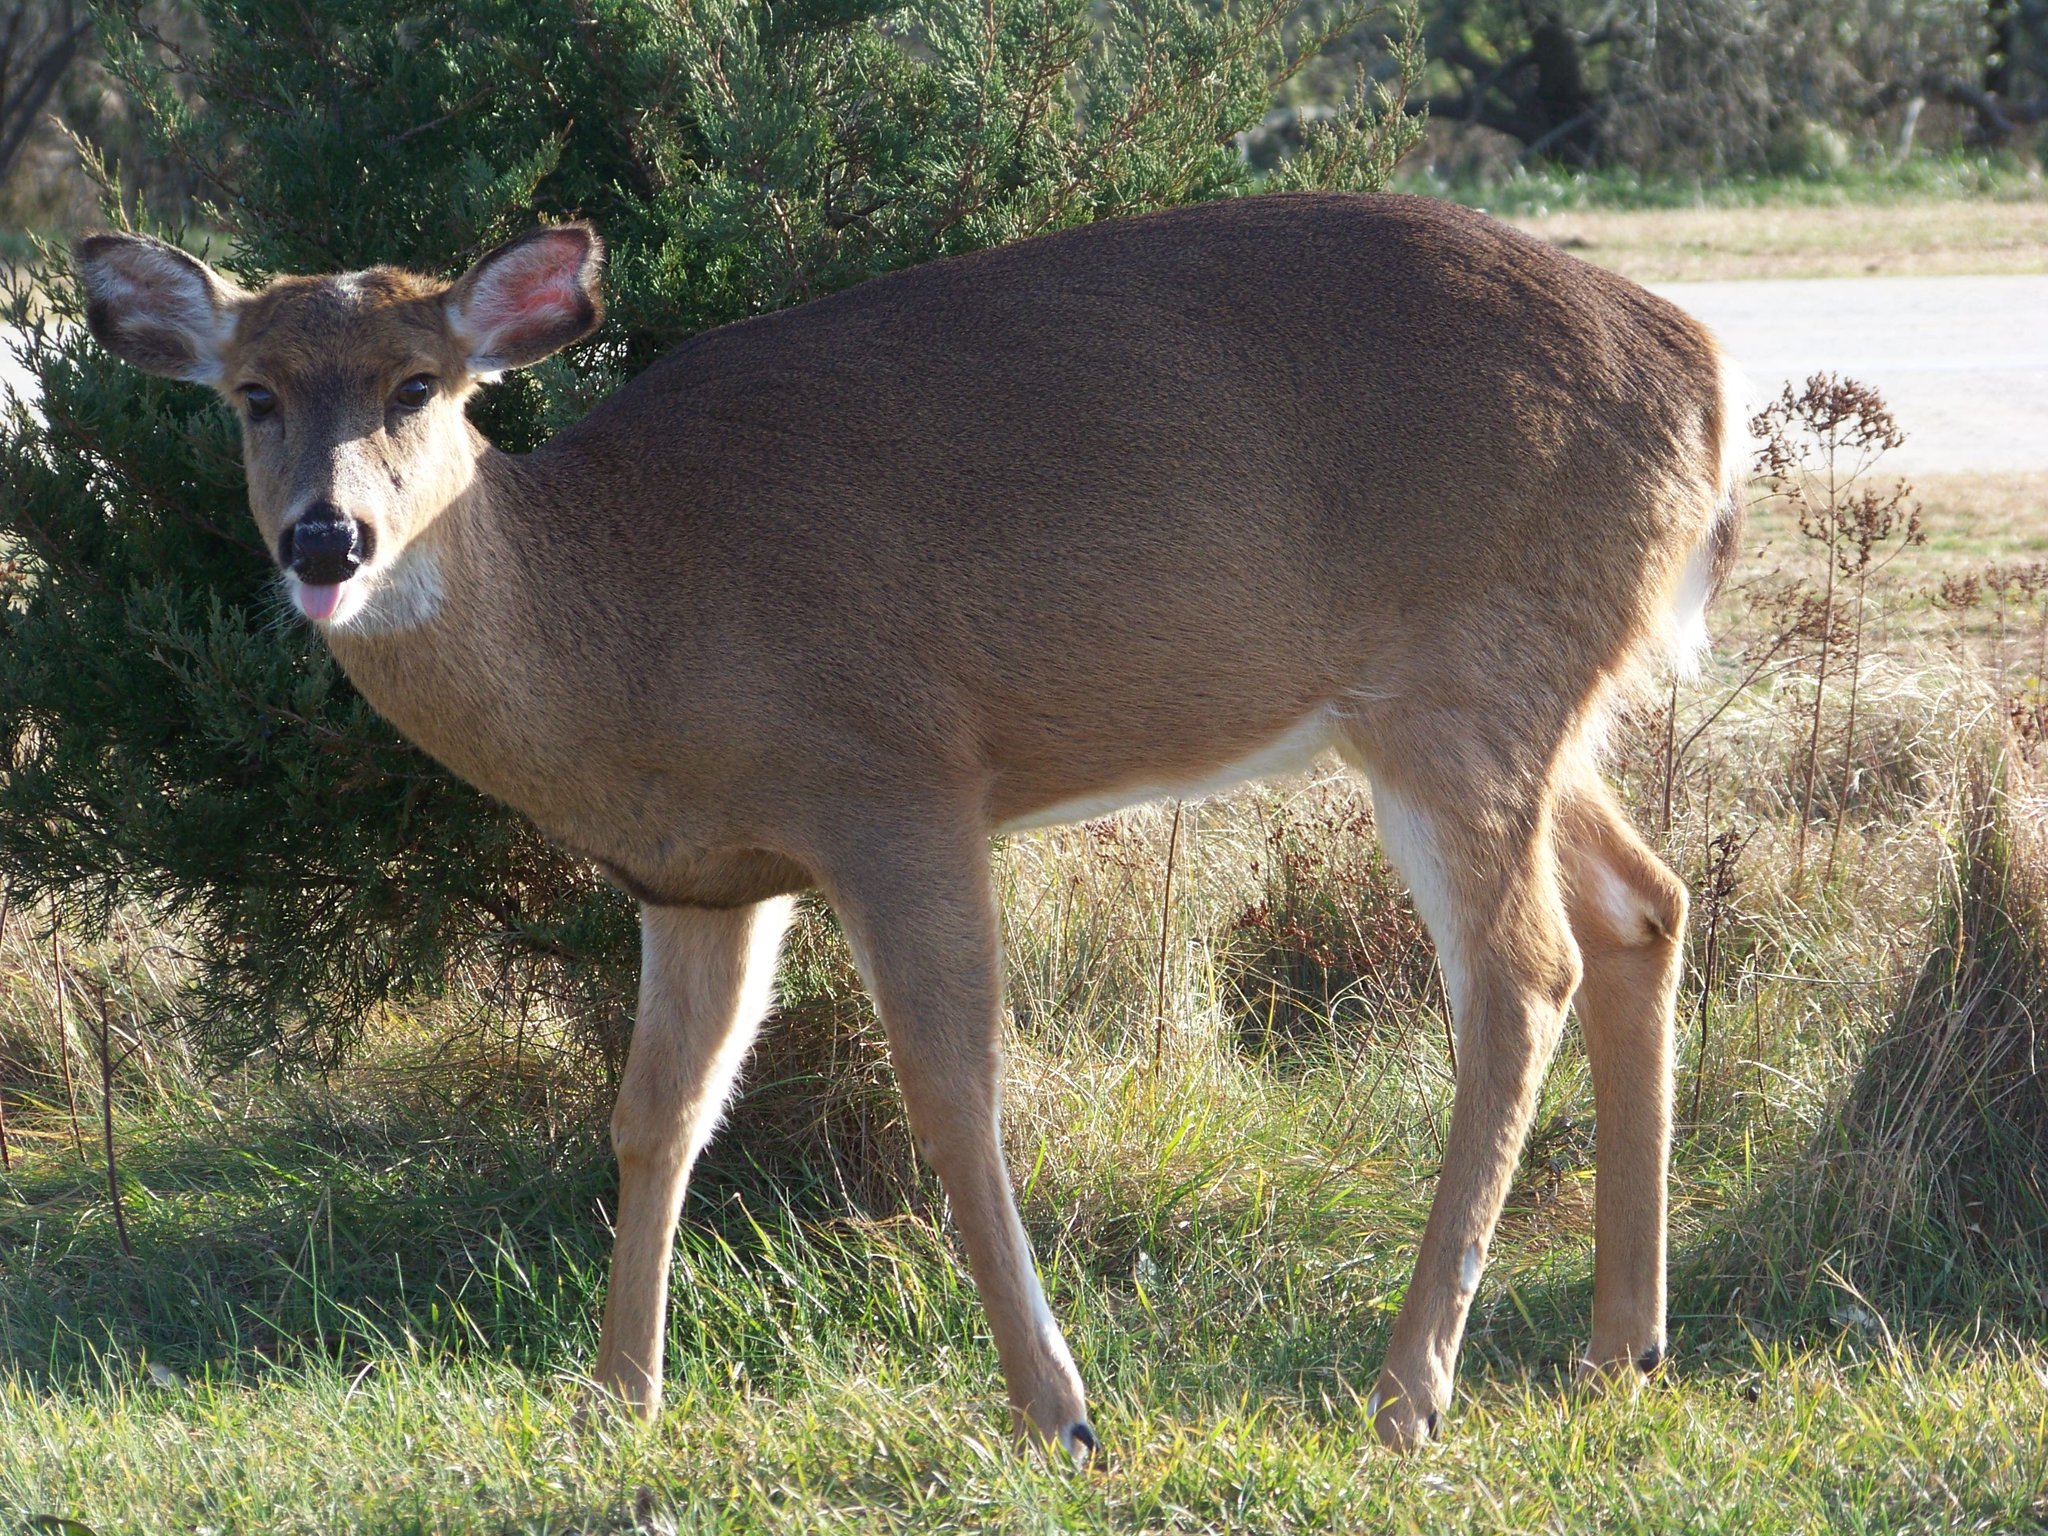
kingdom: Animalia
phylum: Chordata
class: Mammalia
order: Artiodactyla
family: Cervidae
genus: Odocoileus
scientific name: Odocoileus virginianus
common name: White-tailed deer
